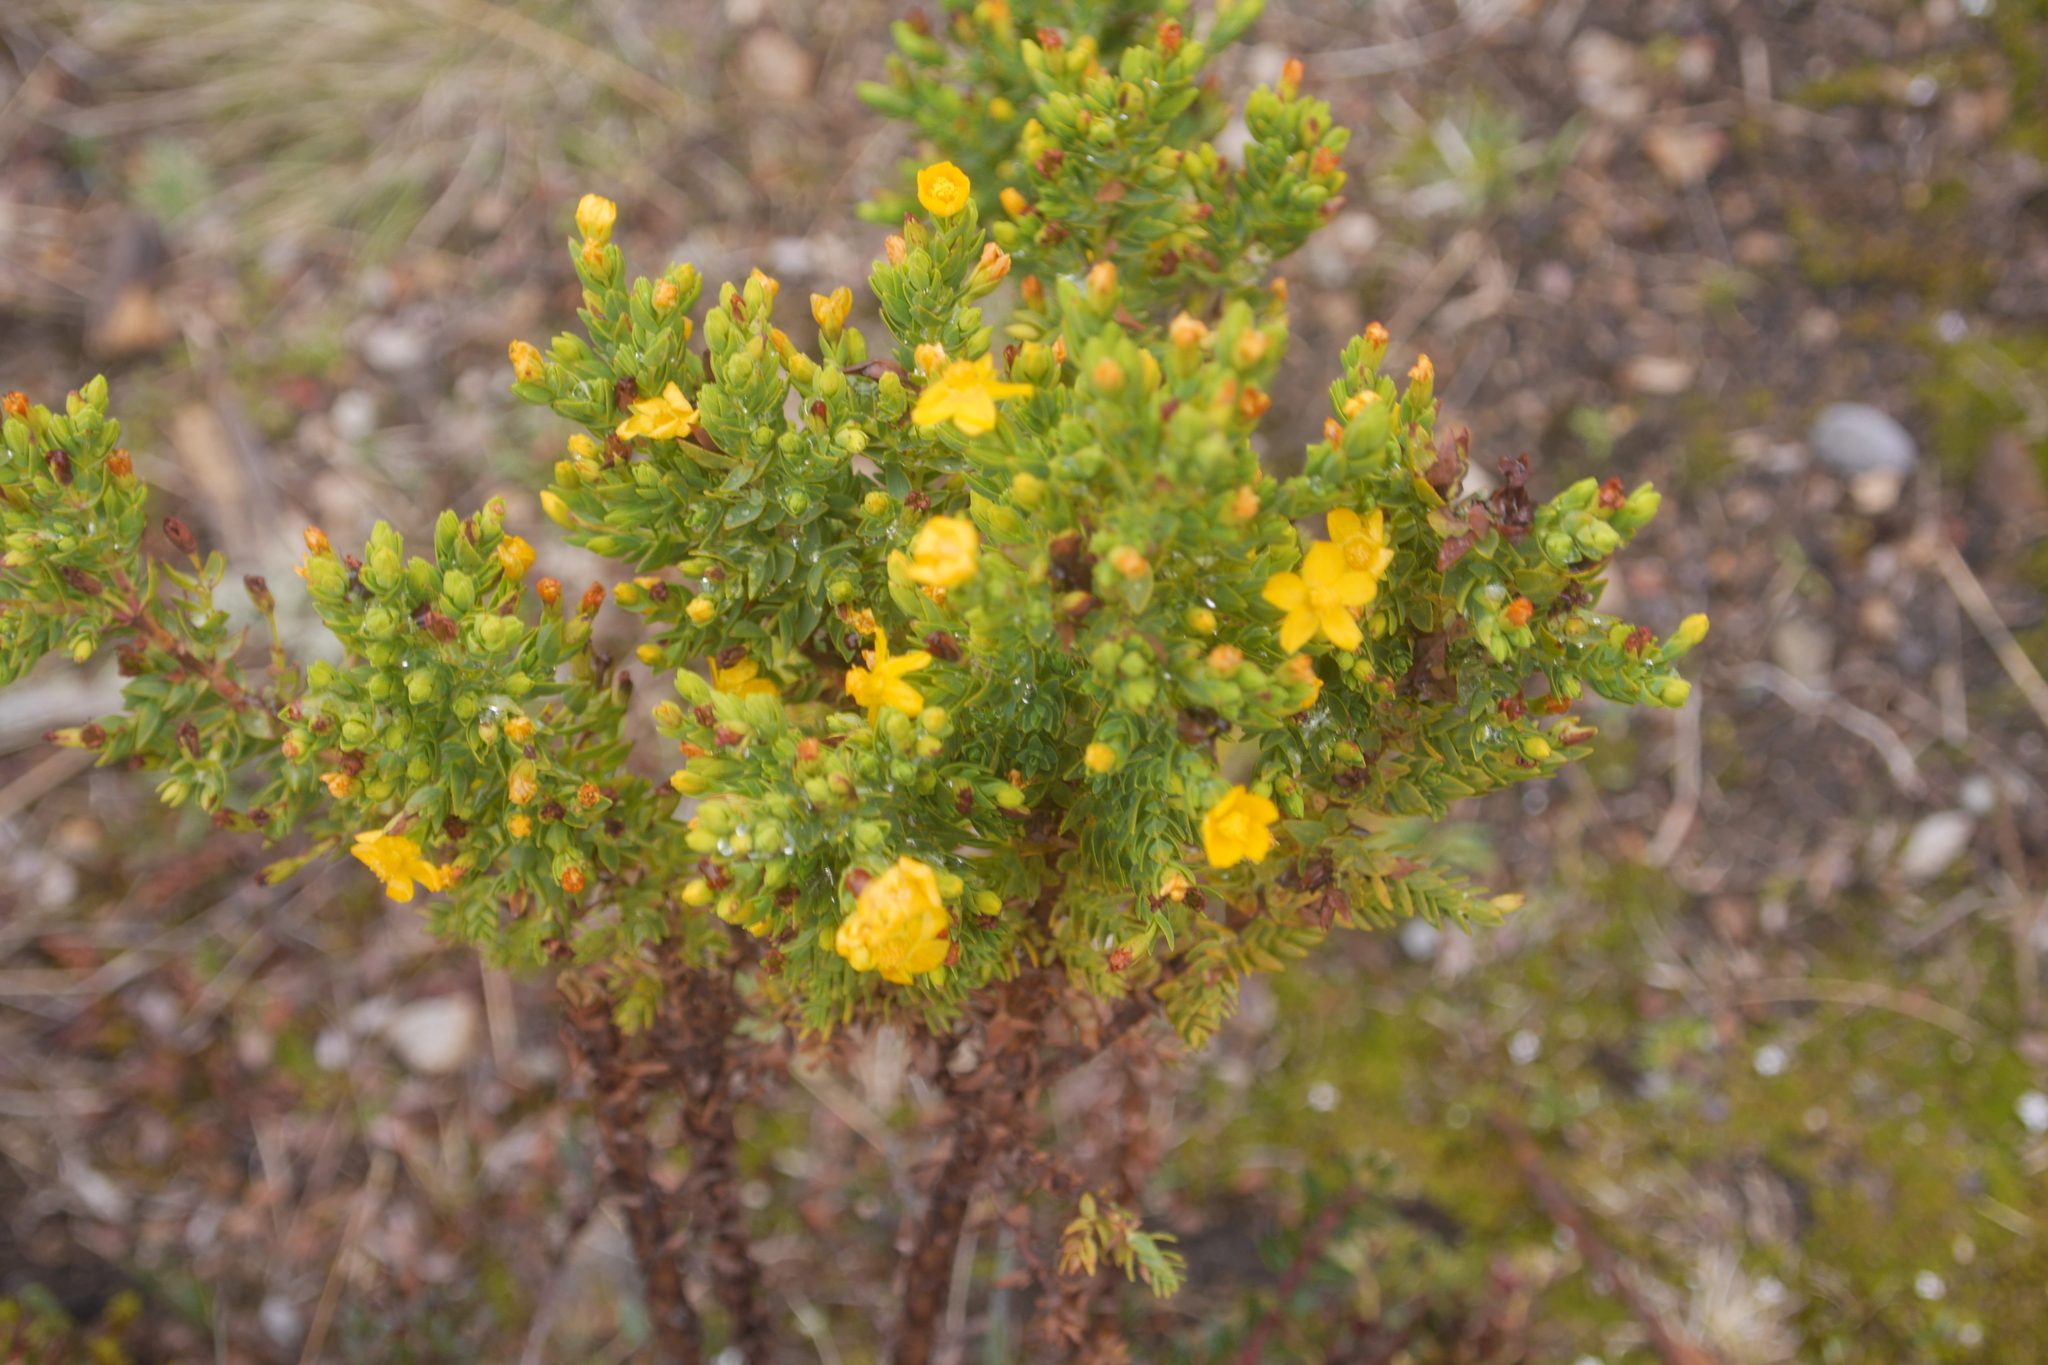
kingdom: Plantae
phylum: Tracheophyta
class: Magnoliopsida
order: Malpighiales
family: Hypericaceae
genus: Hypericum
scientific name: Hypericum quitense
